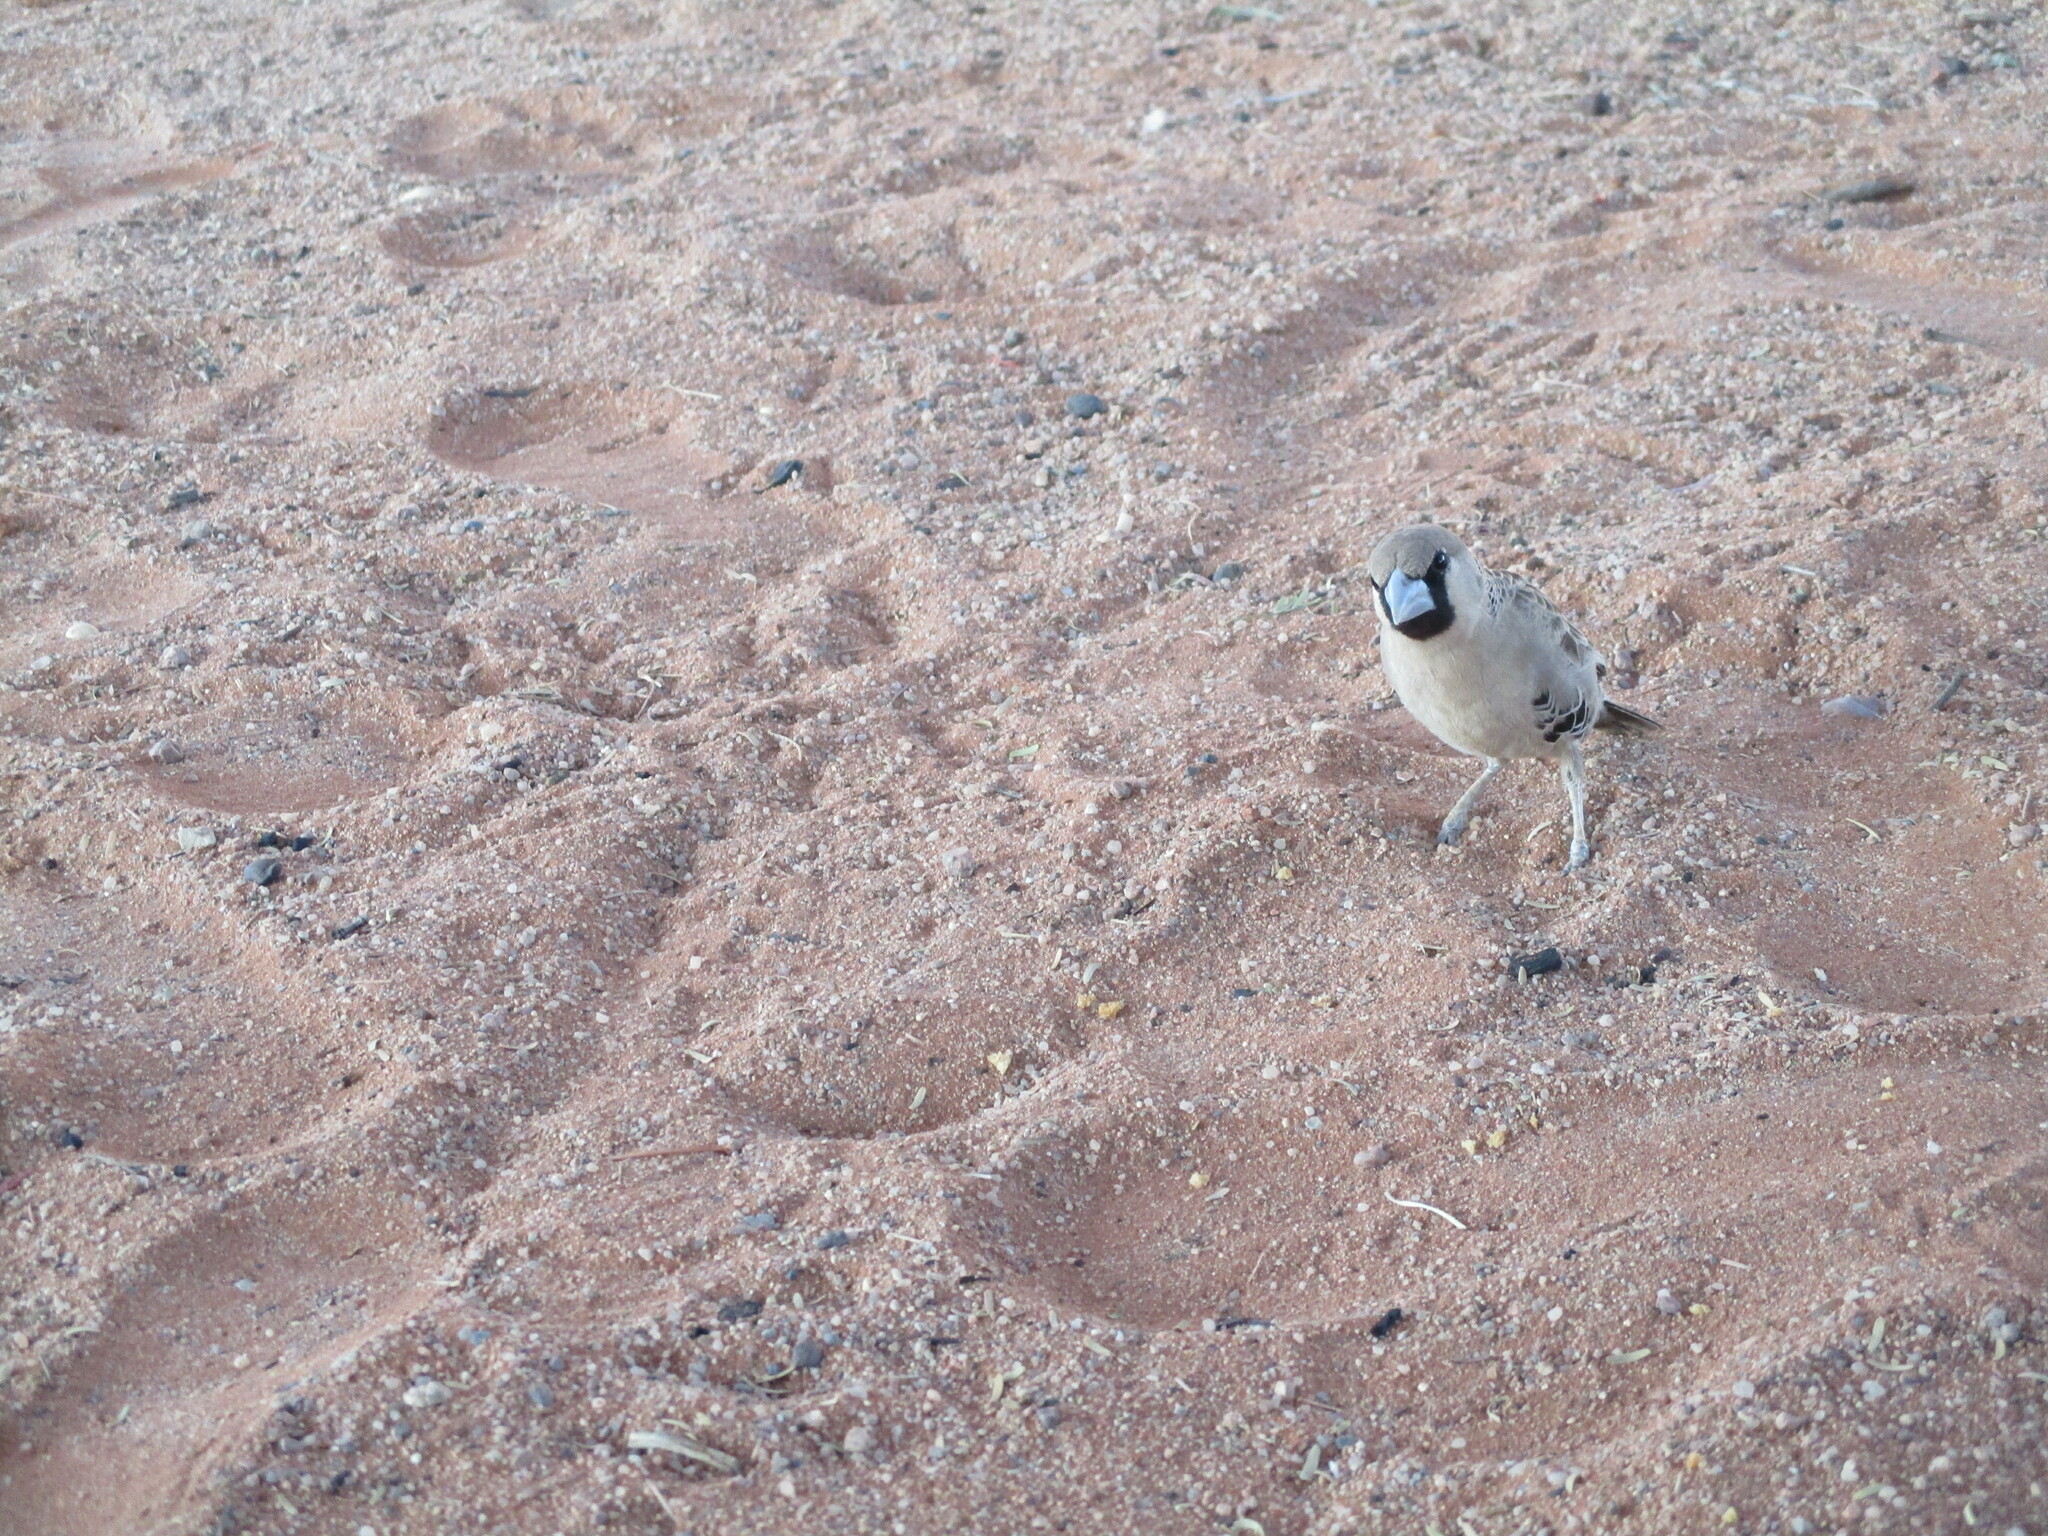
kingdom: Animalia
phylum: Chordata
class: Aves
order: Passeriformes
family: Passeridae
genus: Philetairus
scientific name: Philetairus socius
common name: Sociable weaver
